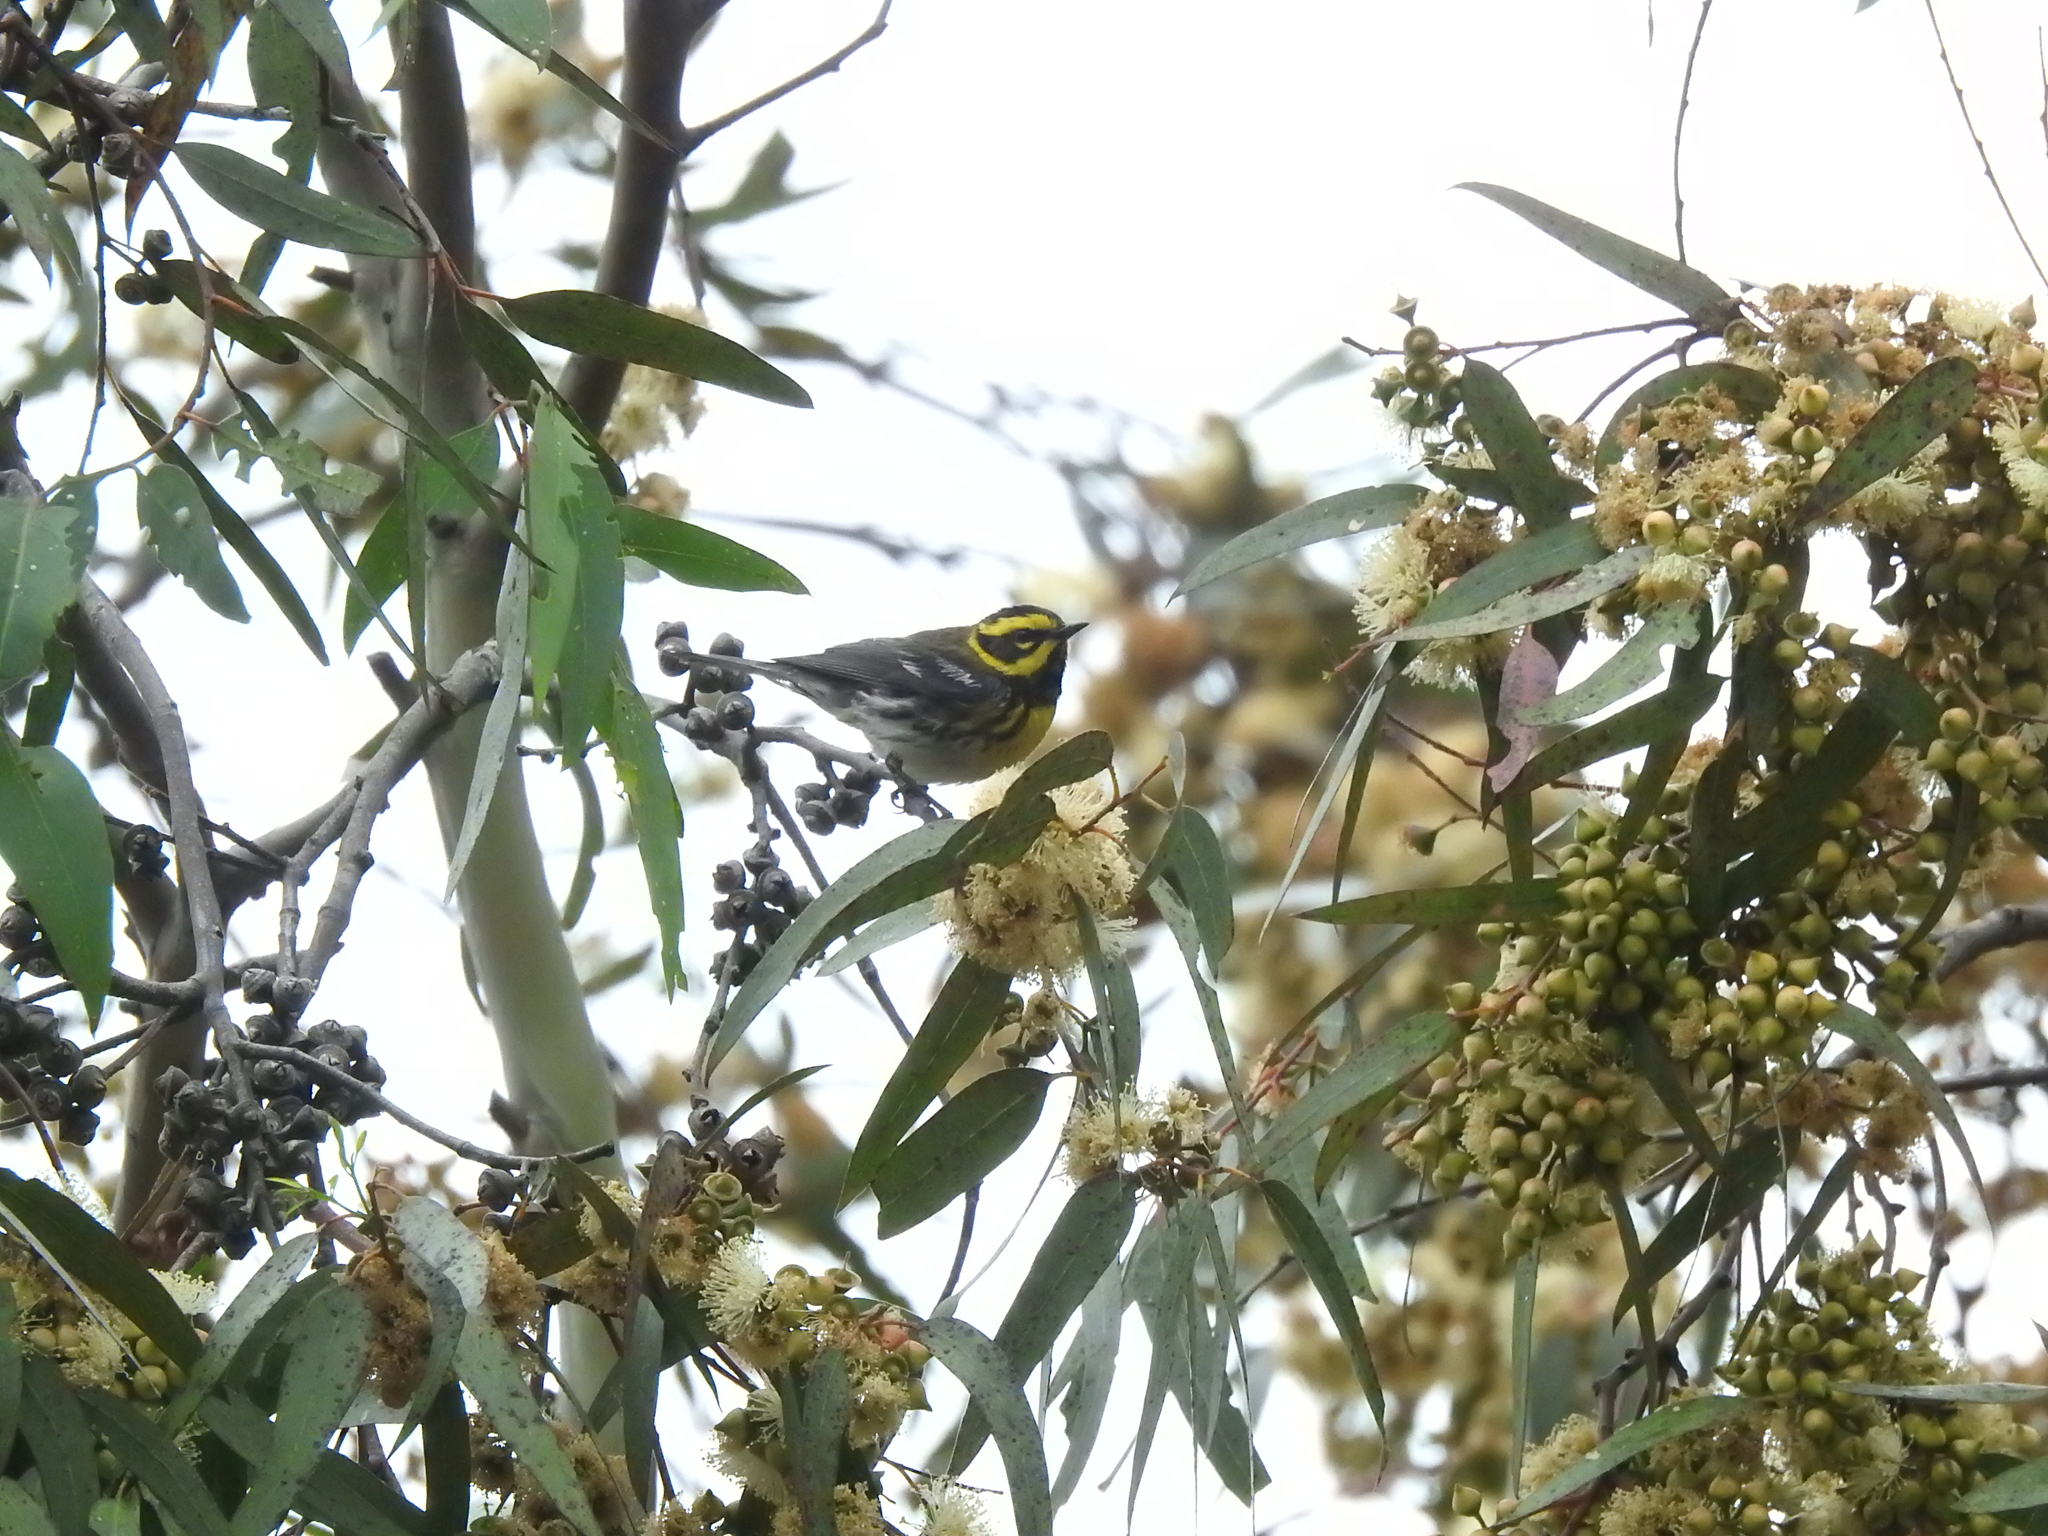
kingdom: Animalia
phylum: Chordata
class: Aves
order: Passeriformes
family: Parulidae
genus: Setophaga
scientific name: Setophaga townsendi
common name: Townsend's warbler
